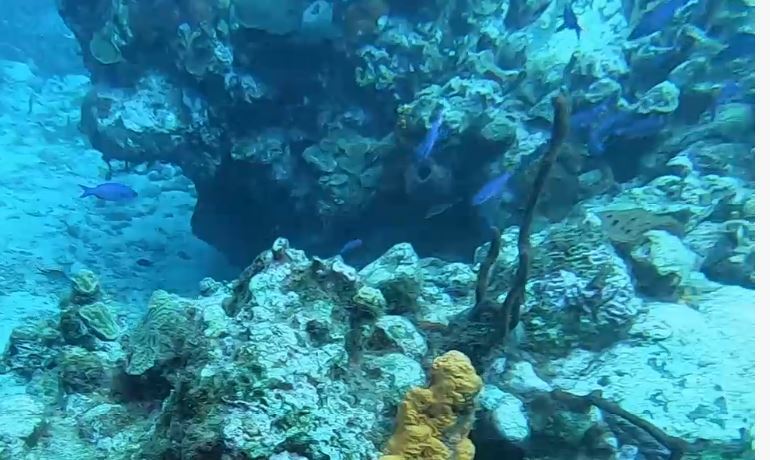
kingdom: Animalia
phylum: Chordata
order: Perciformes
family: Labridae
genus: Bodianus
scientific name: Bodianus
